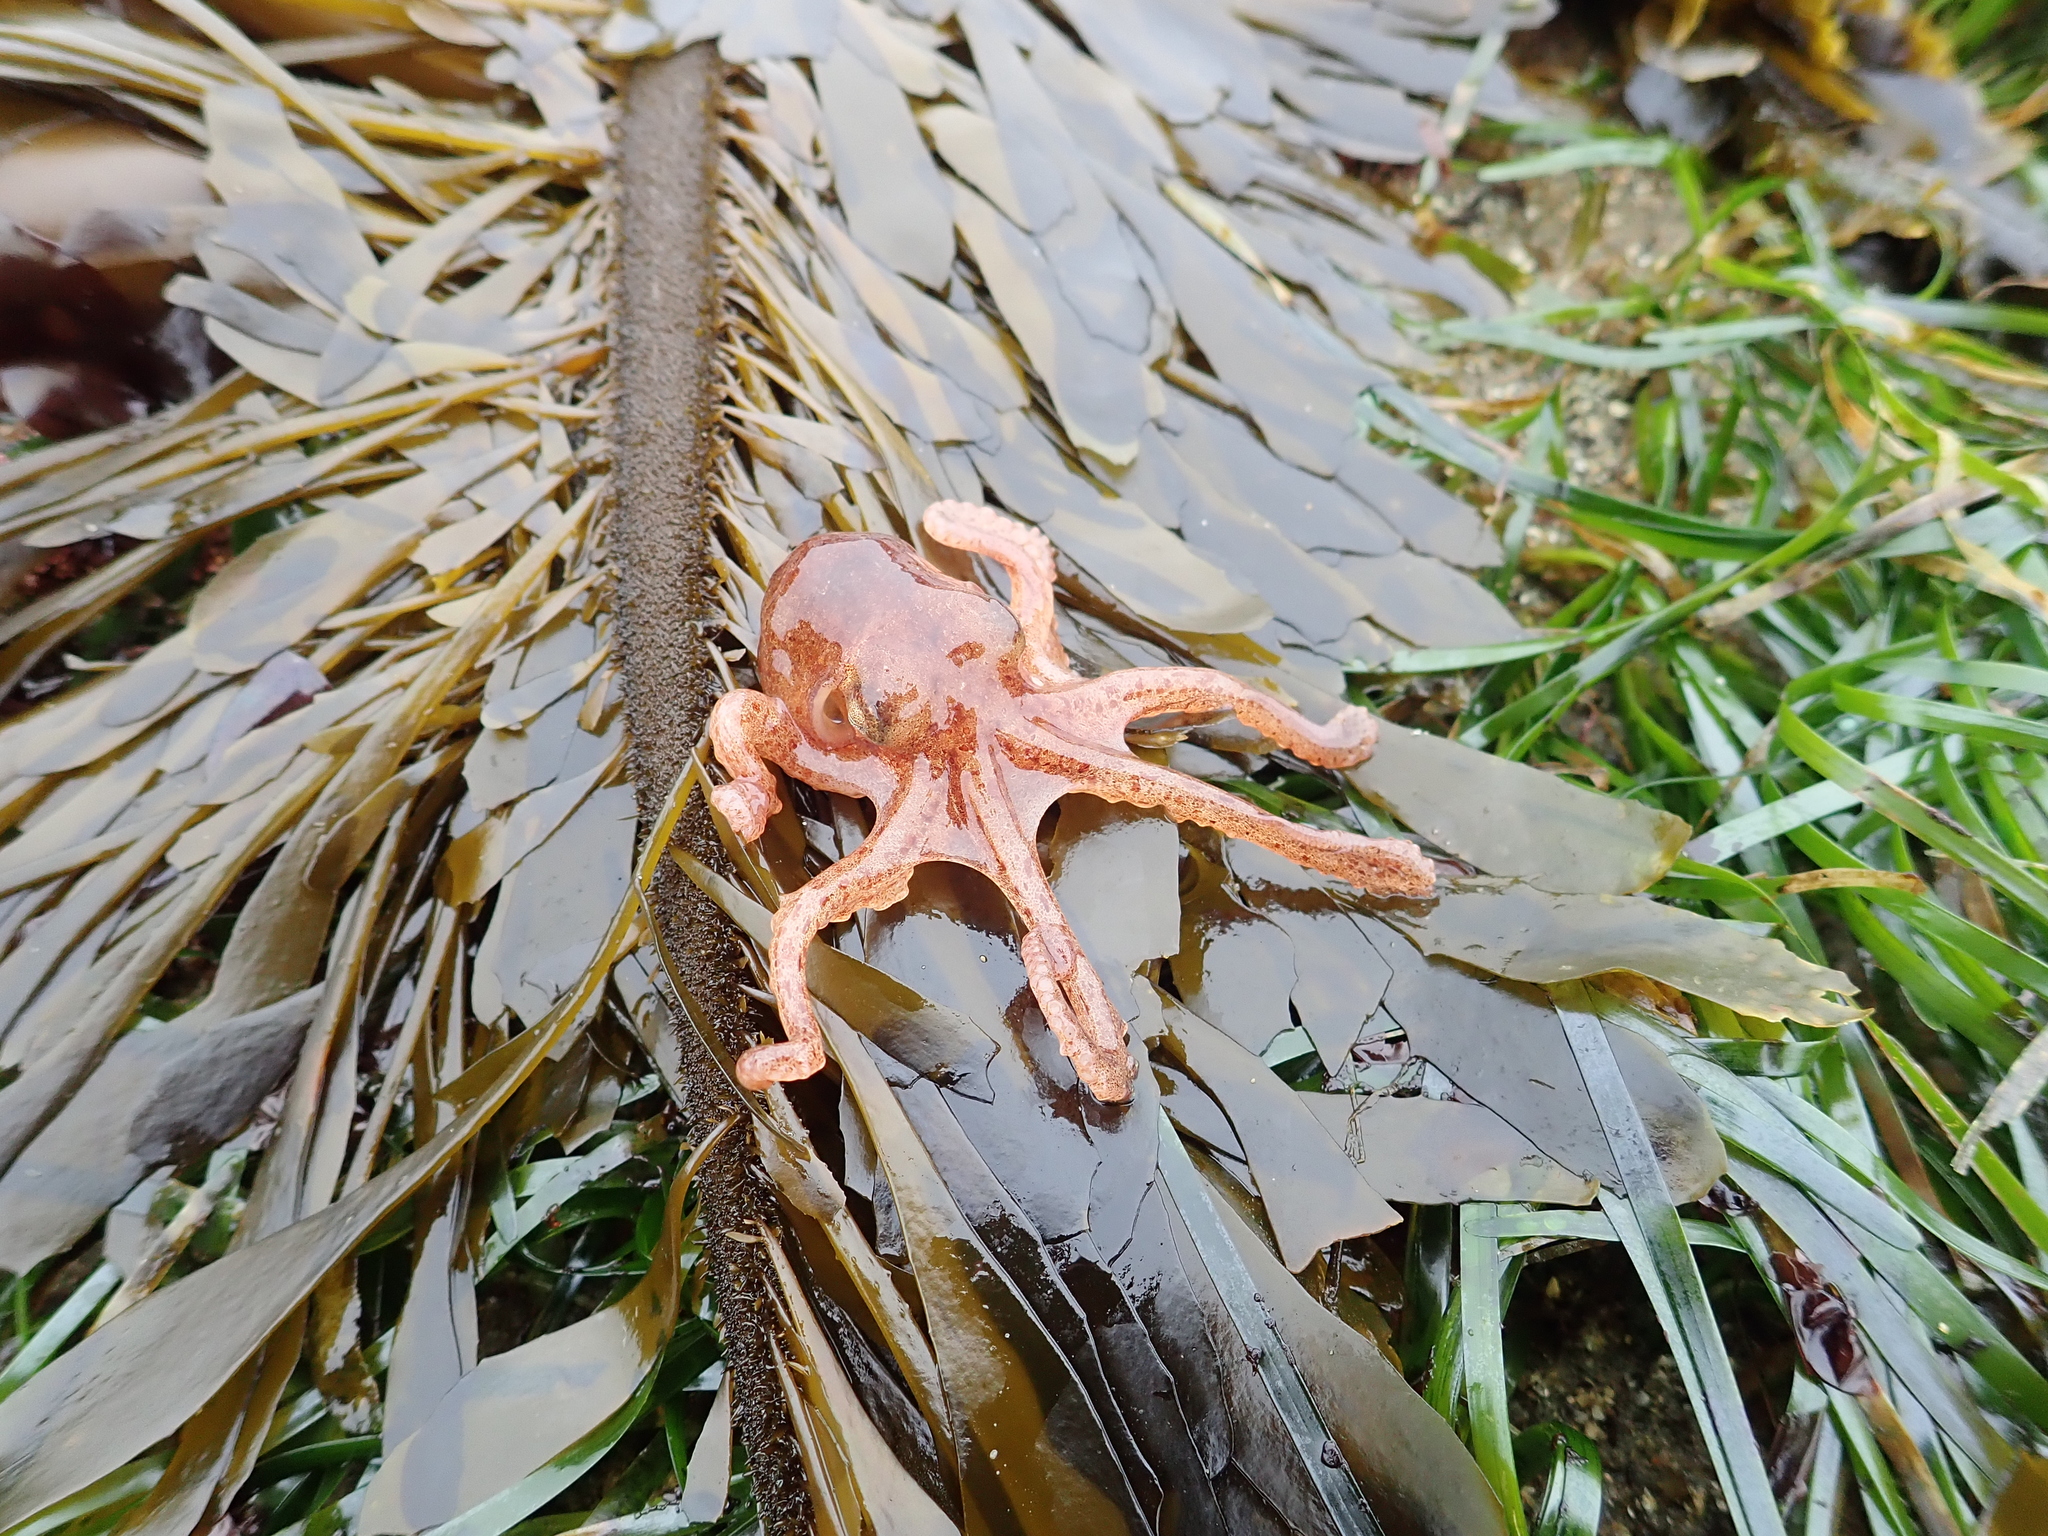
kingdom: Animalia
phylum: Mollusca
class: Cephalopoda
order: Octopoda
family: Octopodidae
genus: Octopus
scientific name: Octopus rubescens
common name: East pacific red octopus
